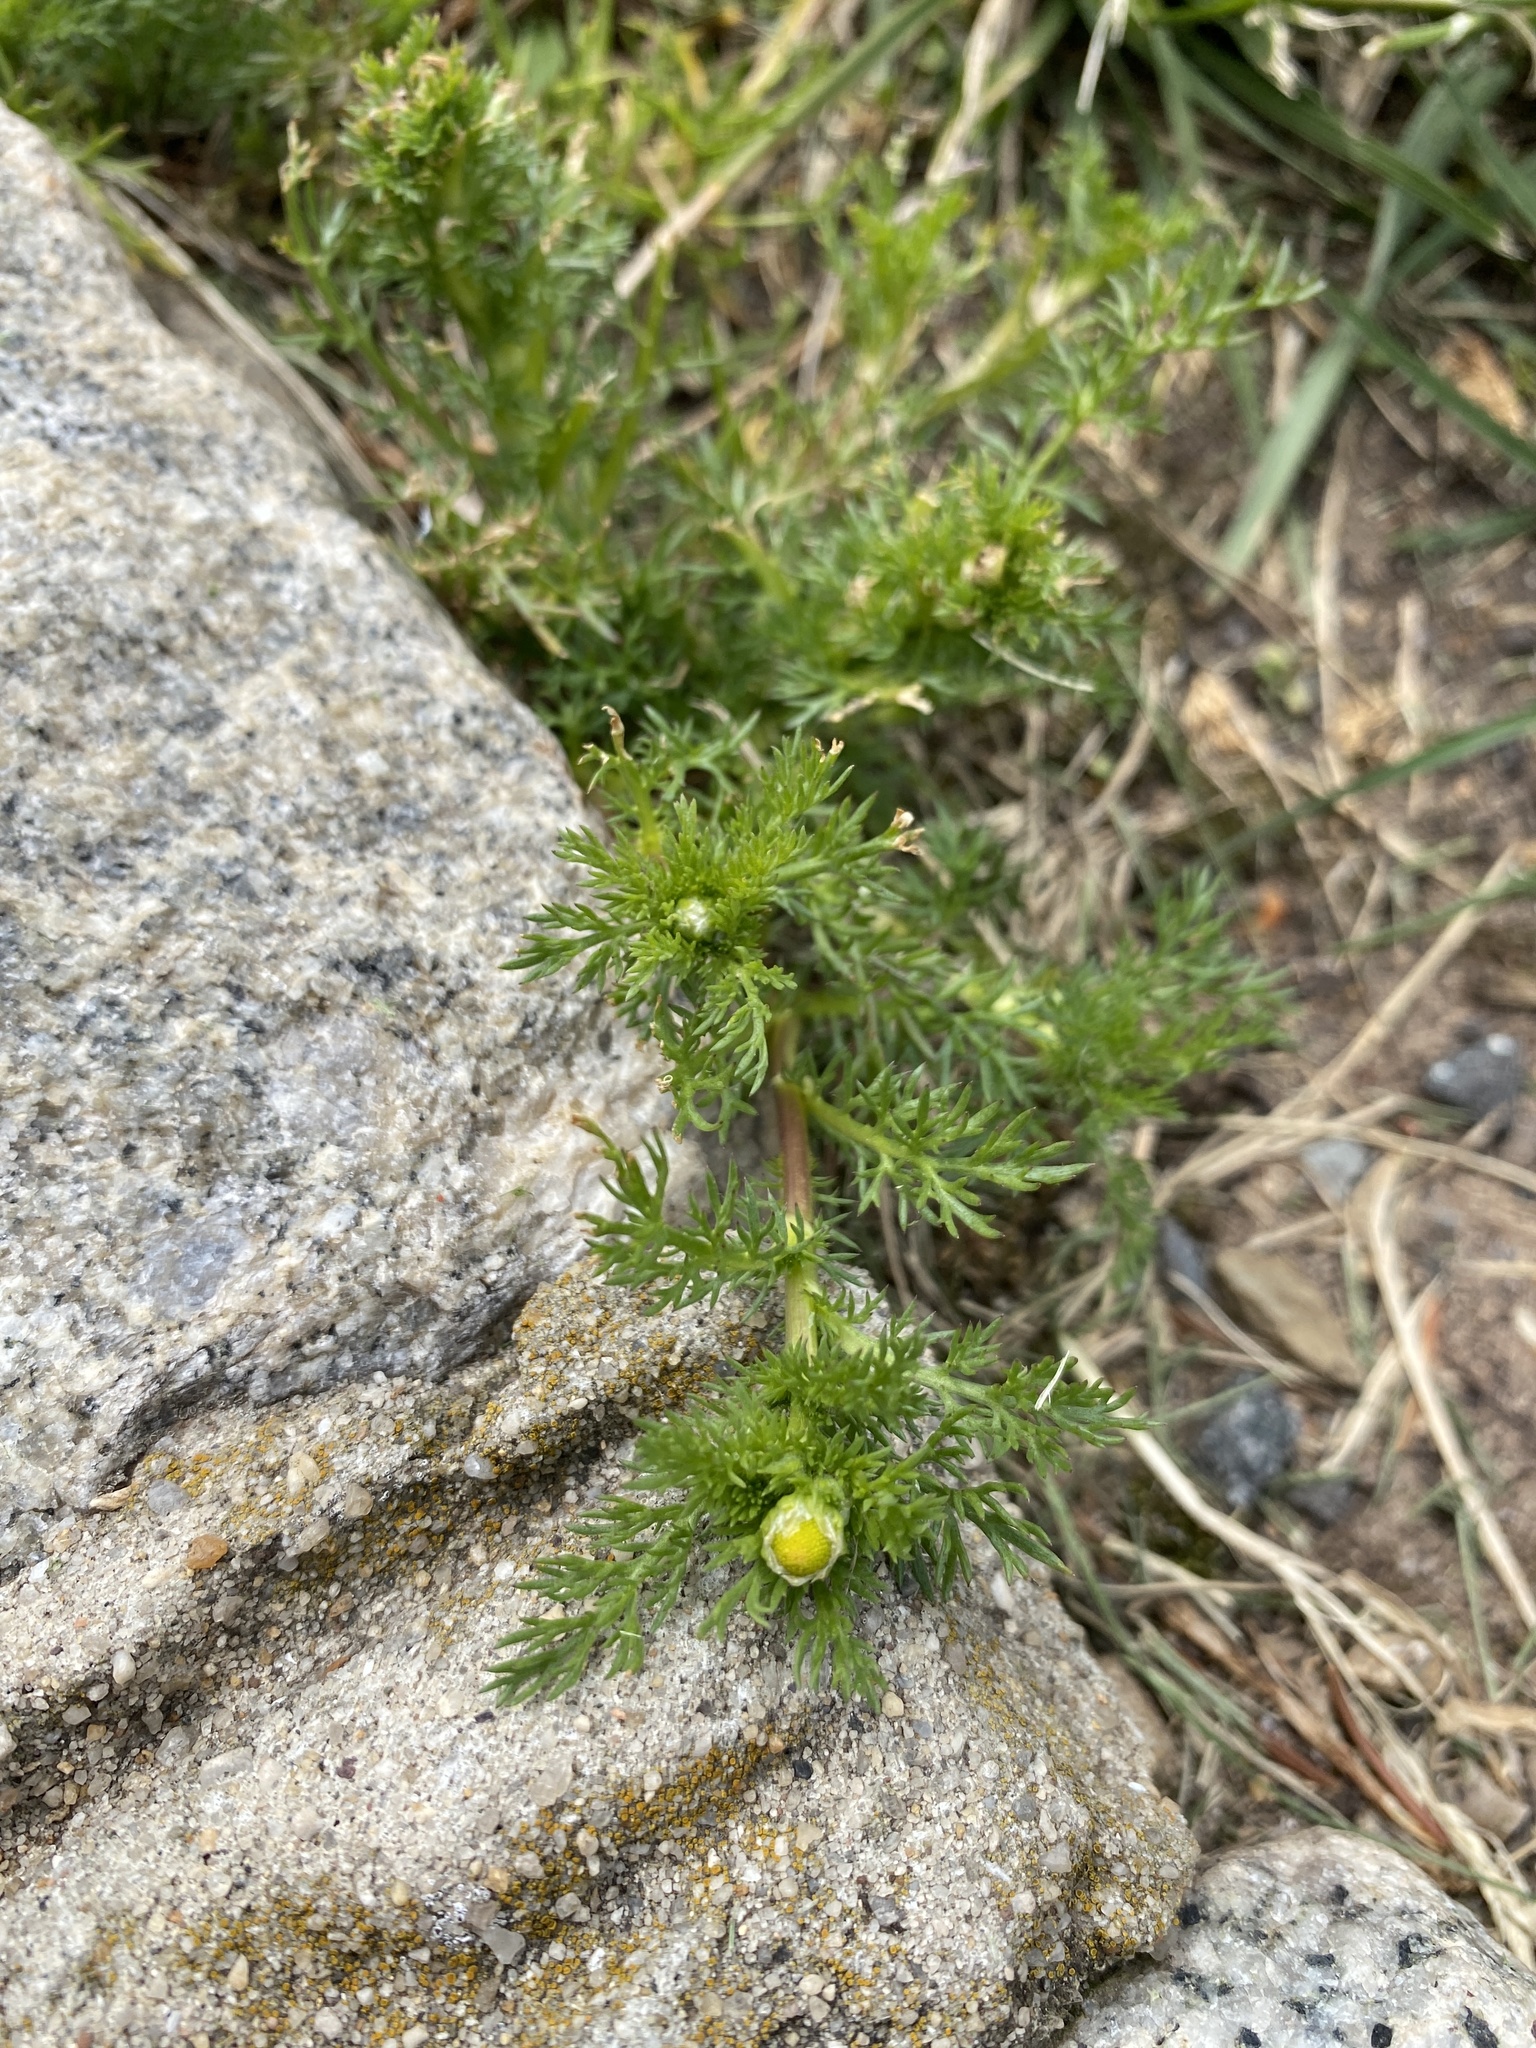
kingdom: Plantae
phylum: Tracheophyta
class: Magnoliopsida
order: Asterales
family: Asteraceae
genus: Matricaria
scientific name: Matricaria discoidea
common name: Disc mayweed
